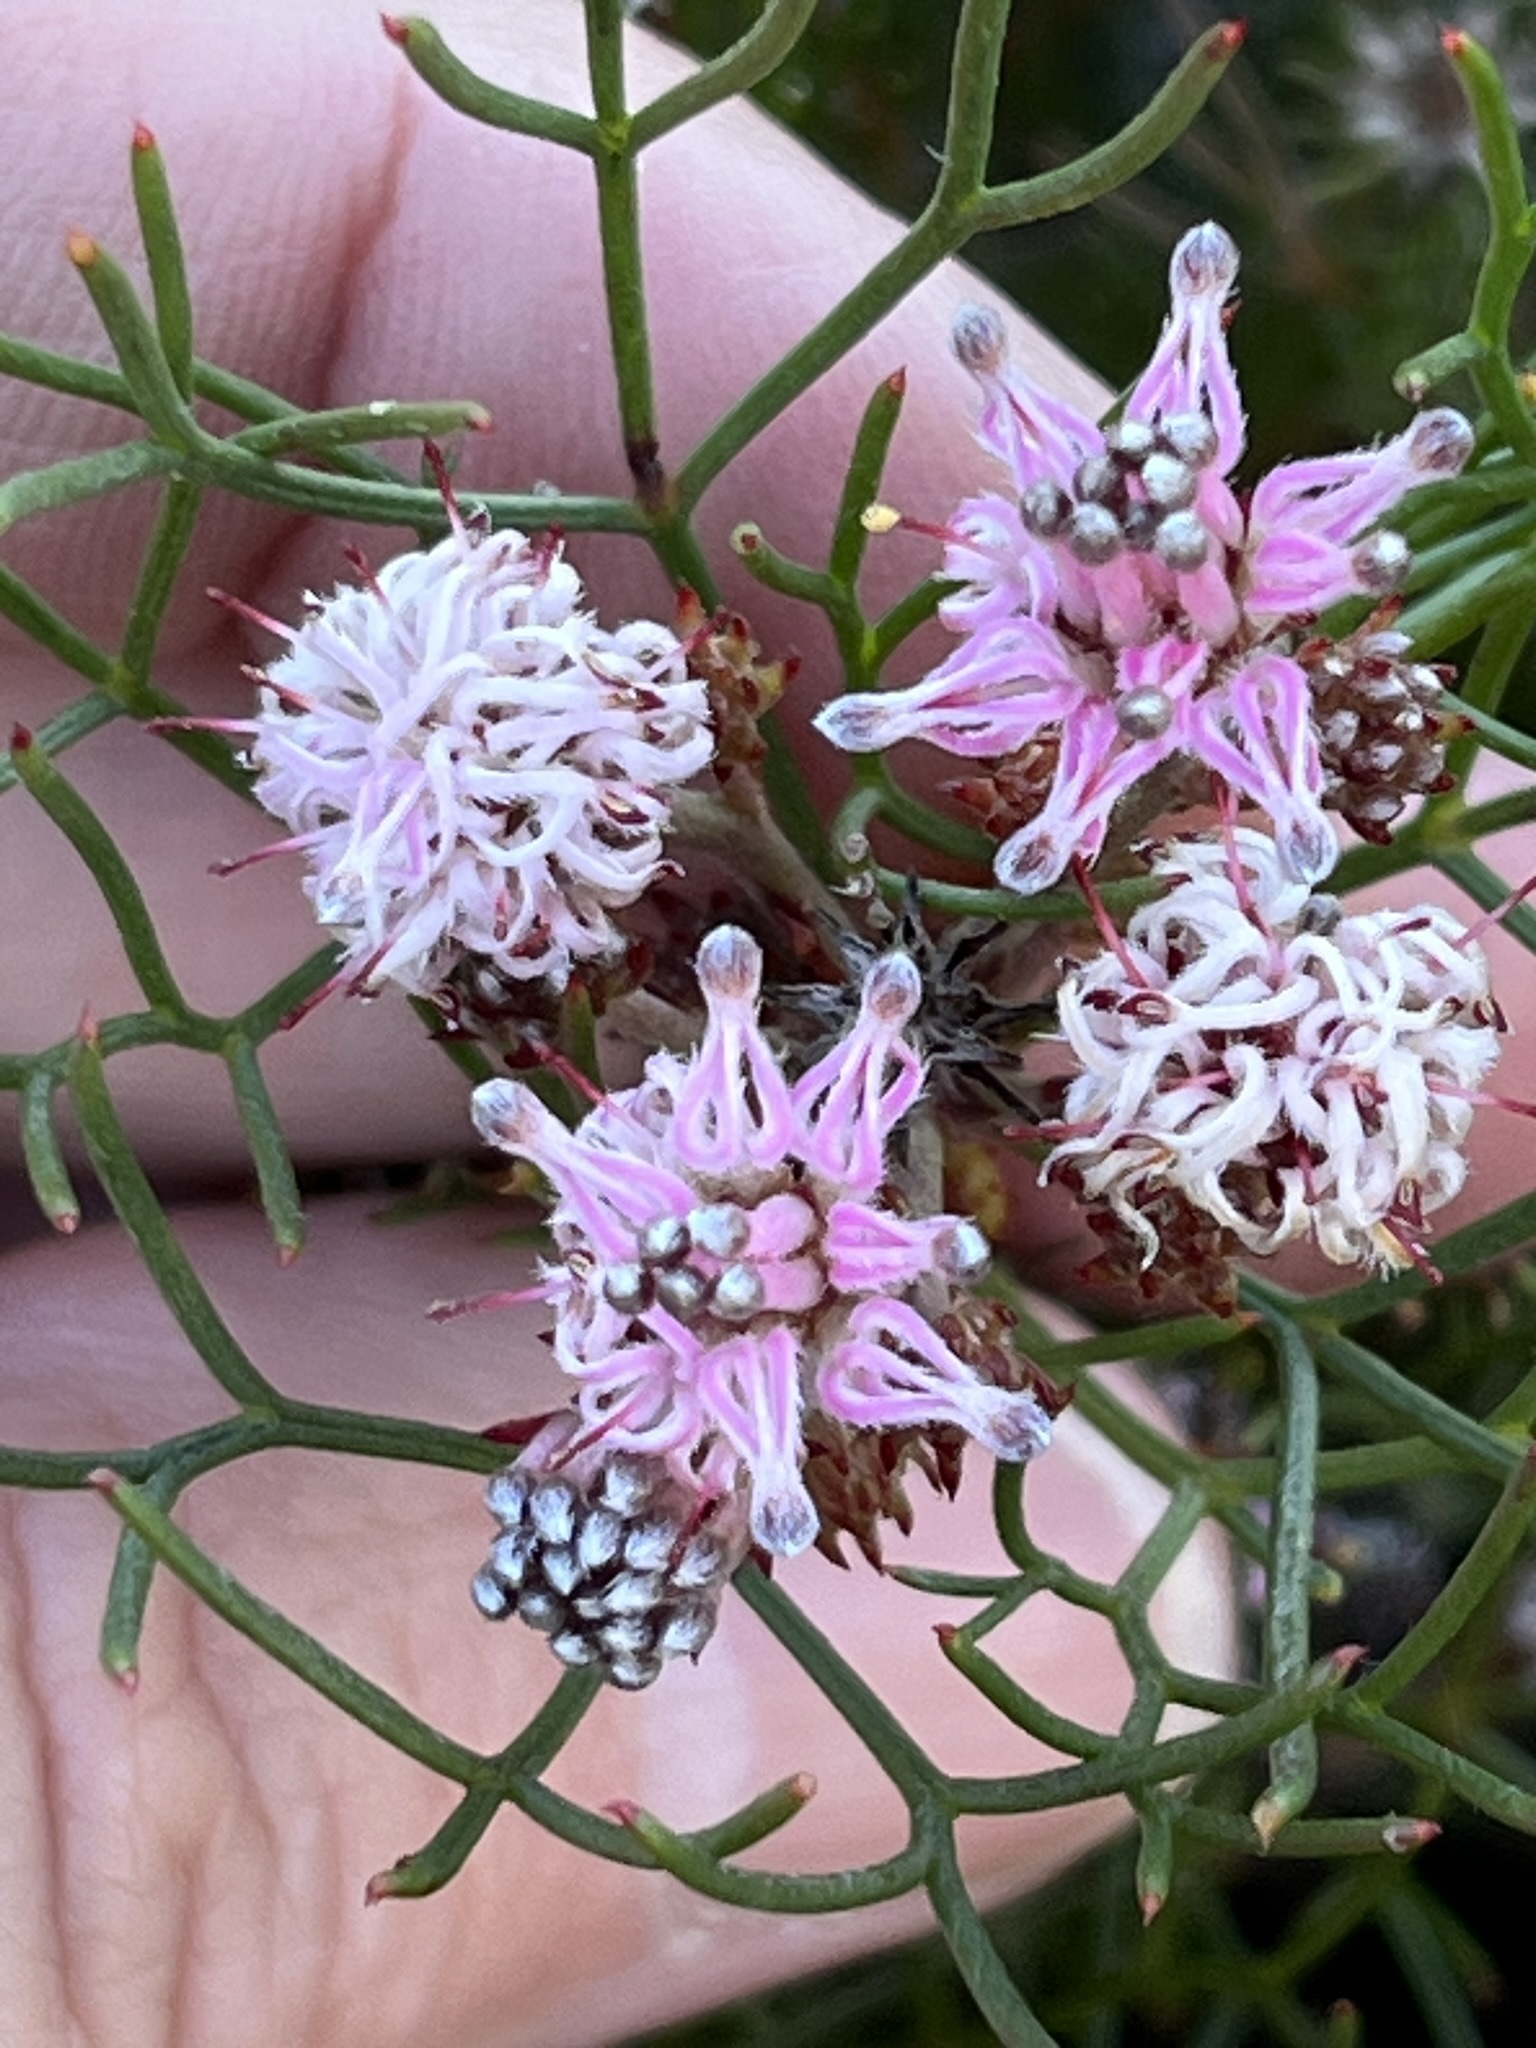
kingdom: Plantae
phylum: Tracheophyta
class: Magnoliopsida
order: Proteales
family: Proteaceae
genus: Serruria
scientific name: Serruria fasciflora
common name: Common pin spiderhead
